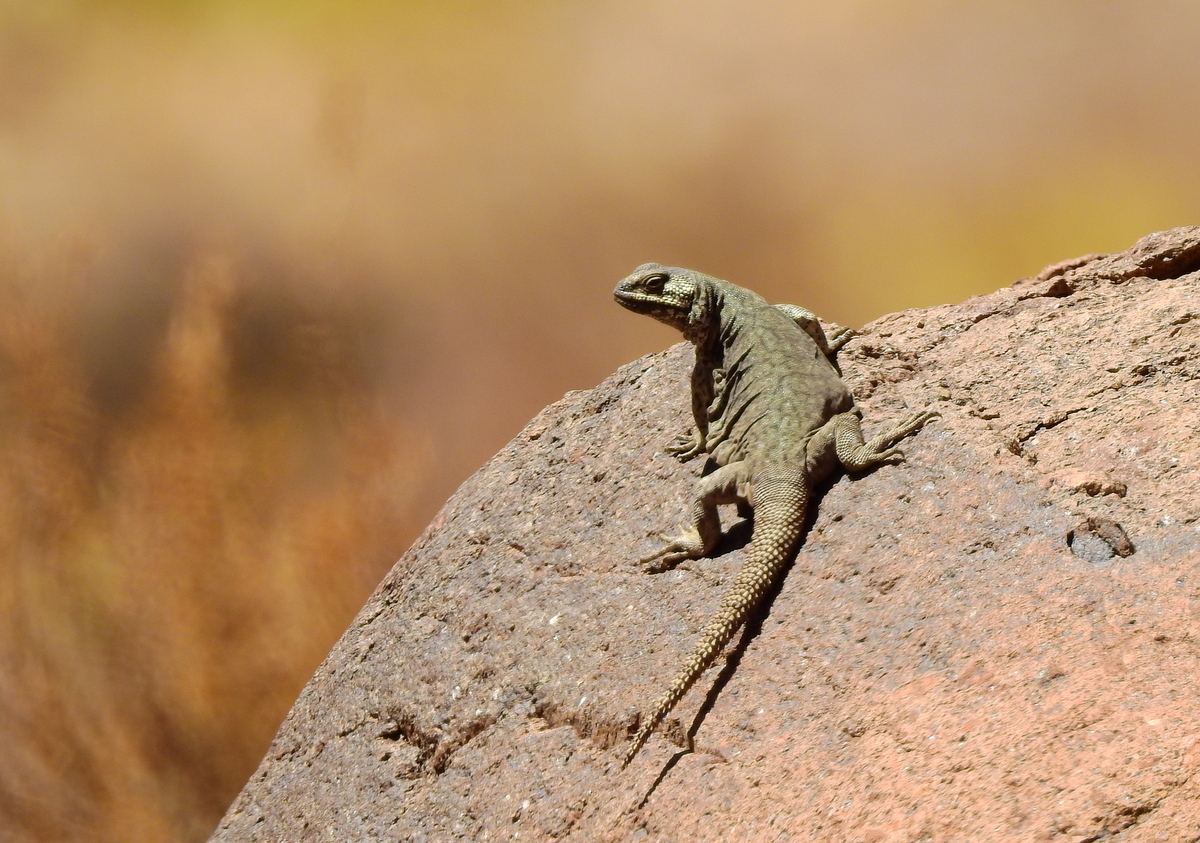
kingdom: Animalia
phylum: Chordata
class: Squamata
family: Liolaemidae
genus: Phymaturus
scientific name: Phymaturus palluma
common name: High mountain lizard
